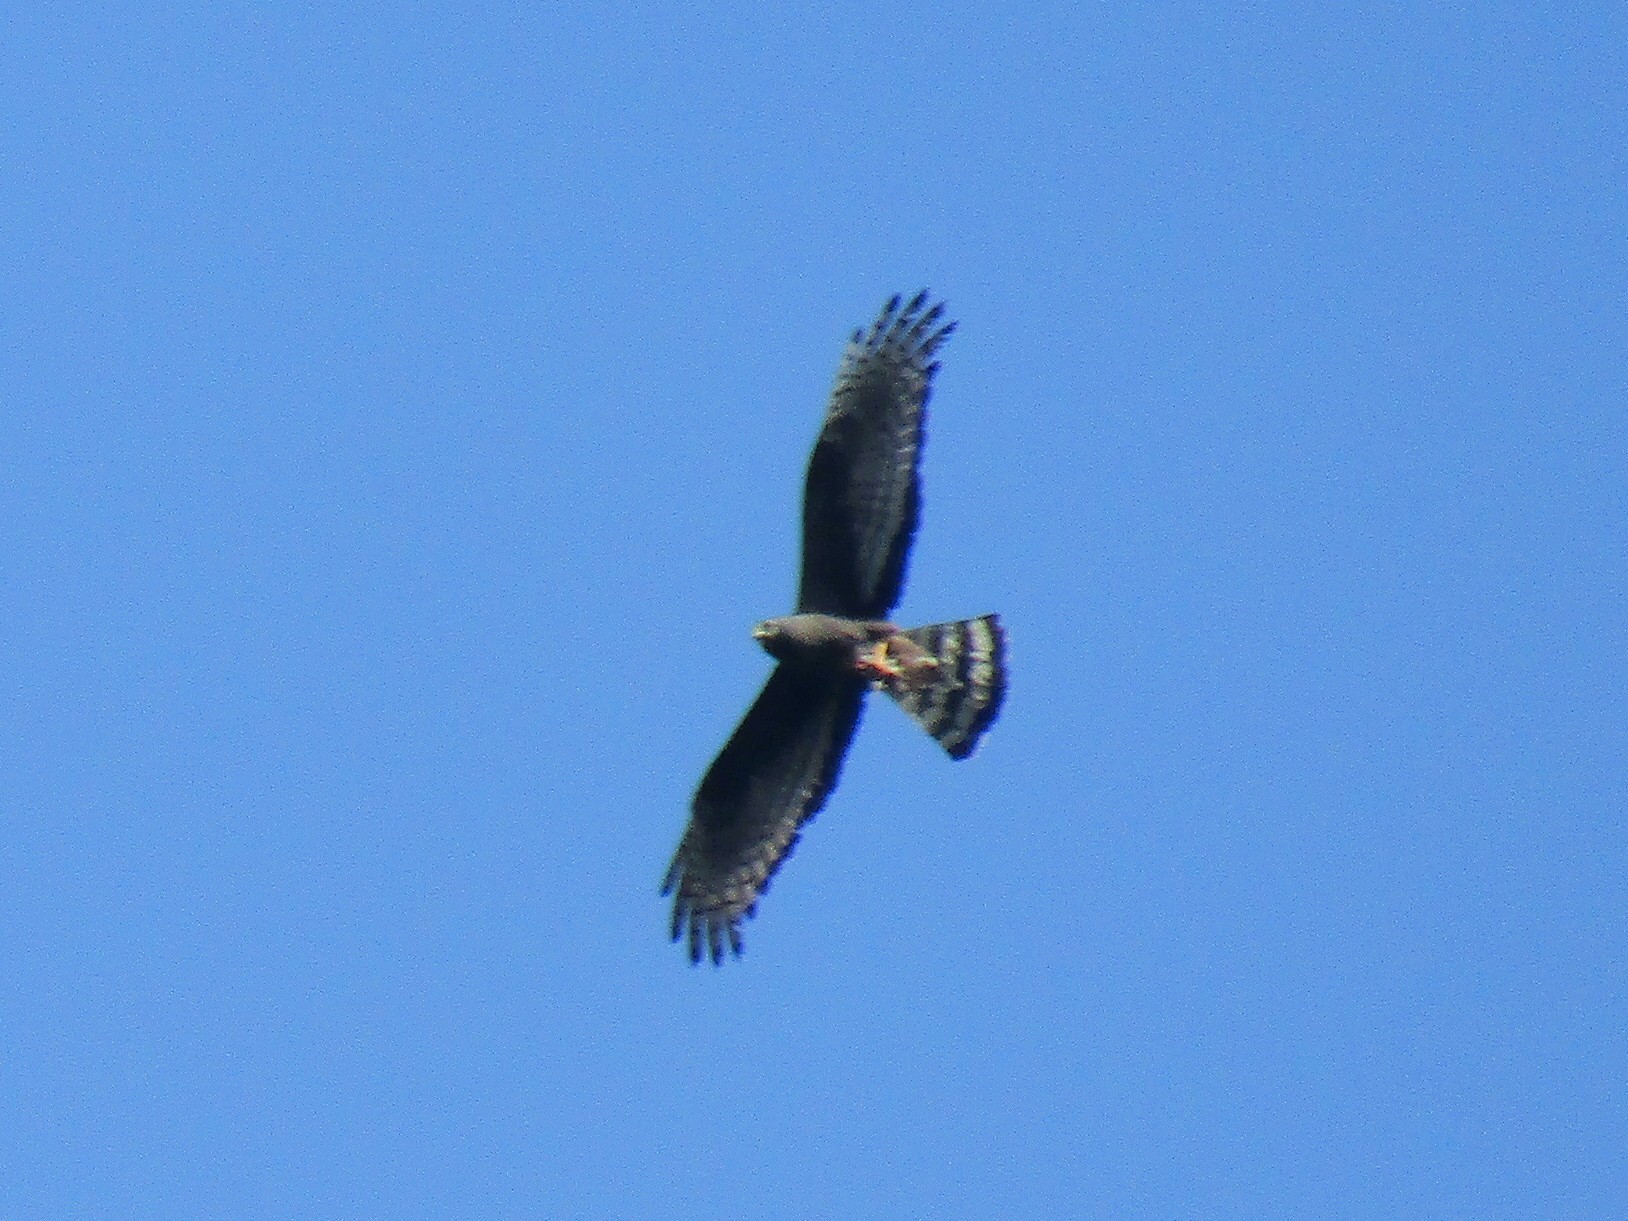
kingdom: Animalia
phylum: Chordata
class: Aves
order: Accipitriformes
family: Accipitridae
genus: Circus
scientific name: Circus buffoni
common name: Long-winged harrier
